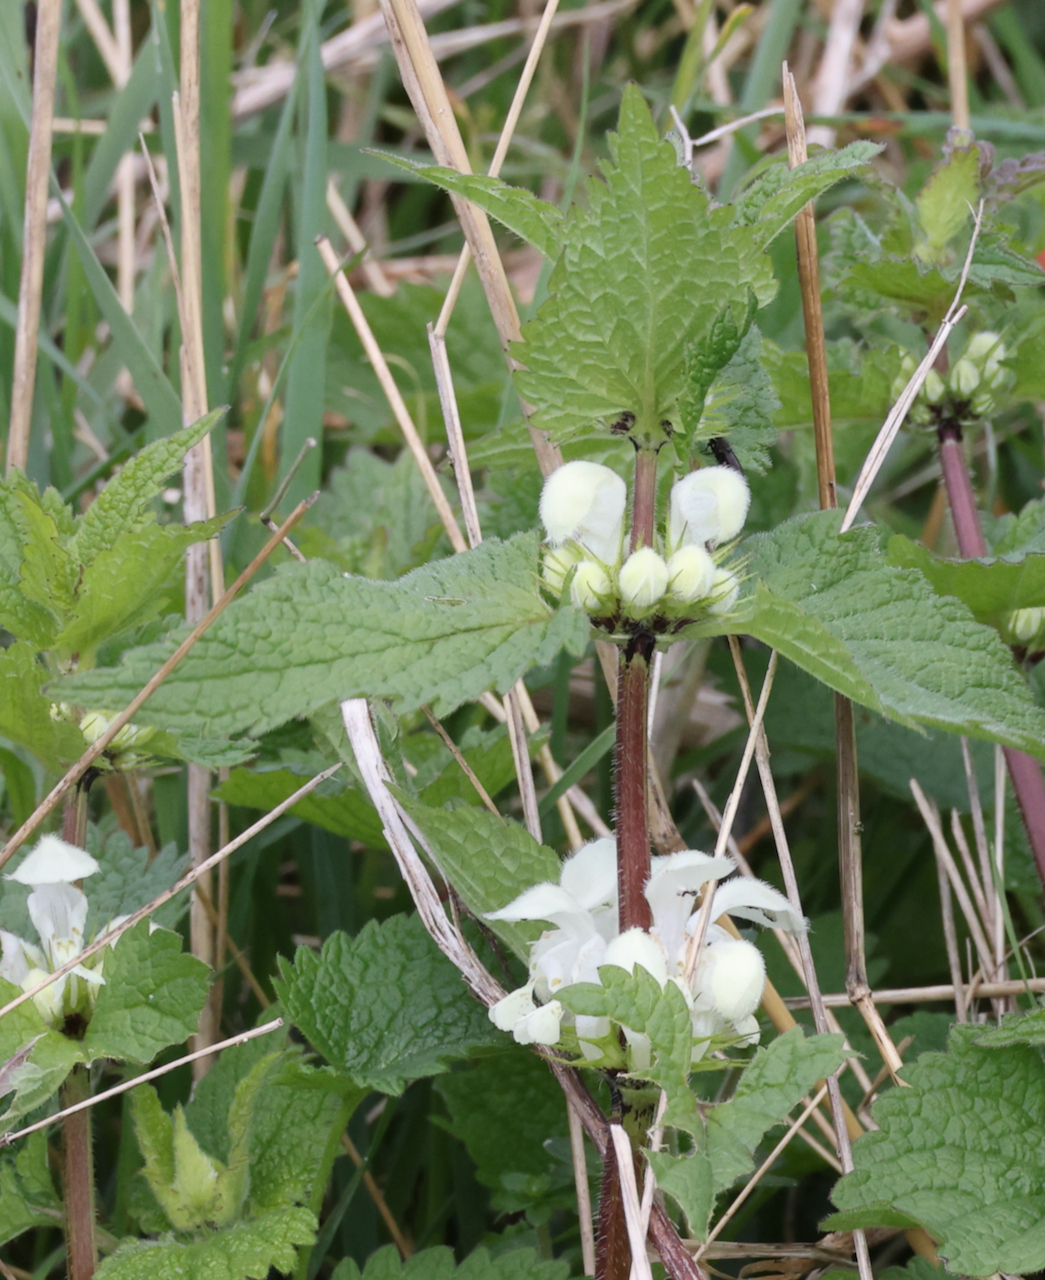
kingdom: Plantae
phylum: Tracheophyta
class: Magnoliopsida
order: Lamiales
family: Lamiaceae
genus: Lamium
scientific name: Lamium album
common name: White dead-nettle
